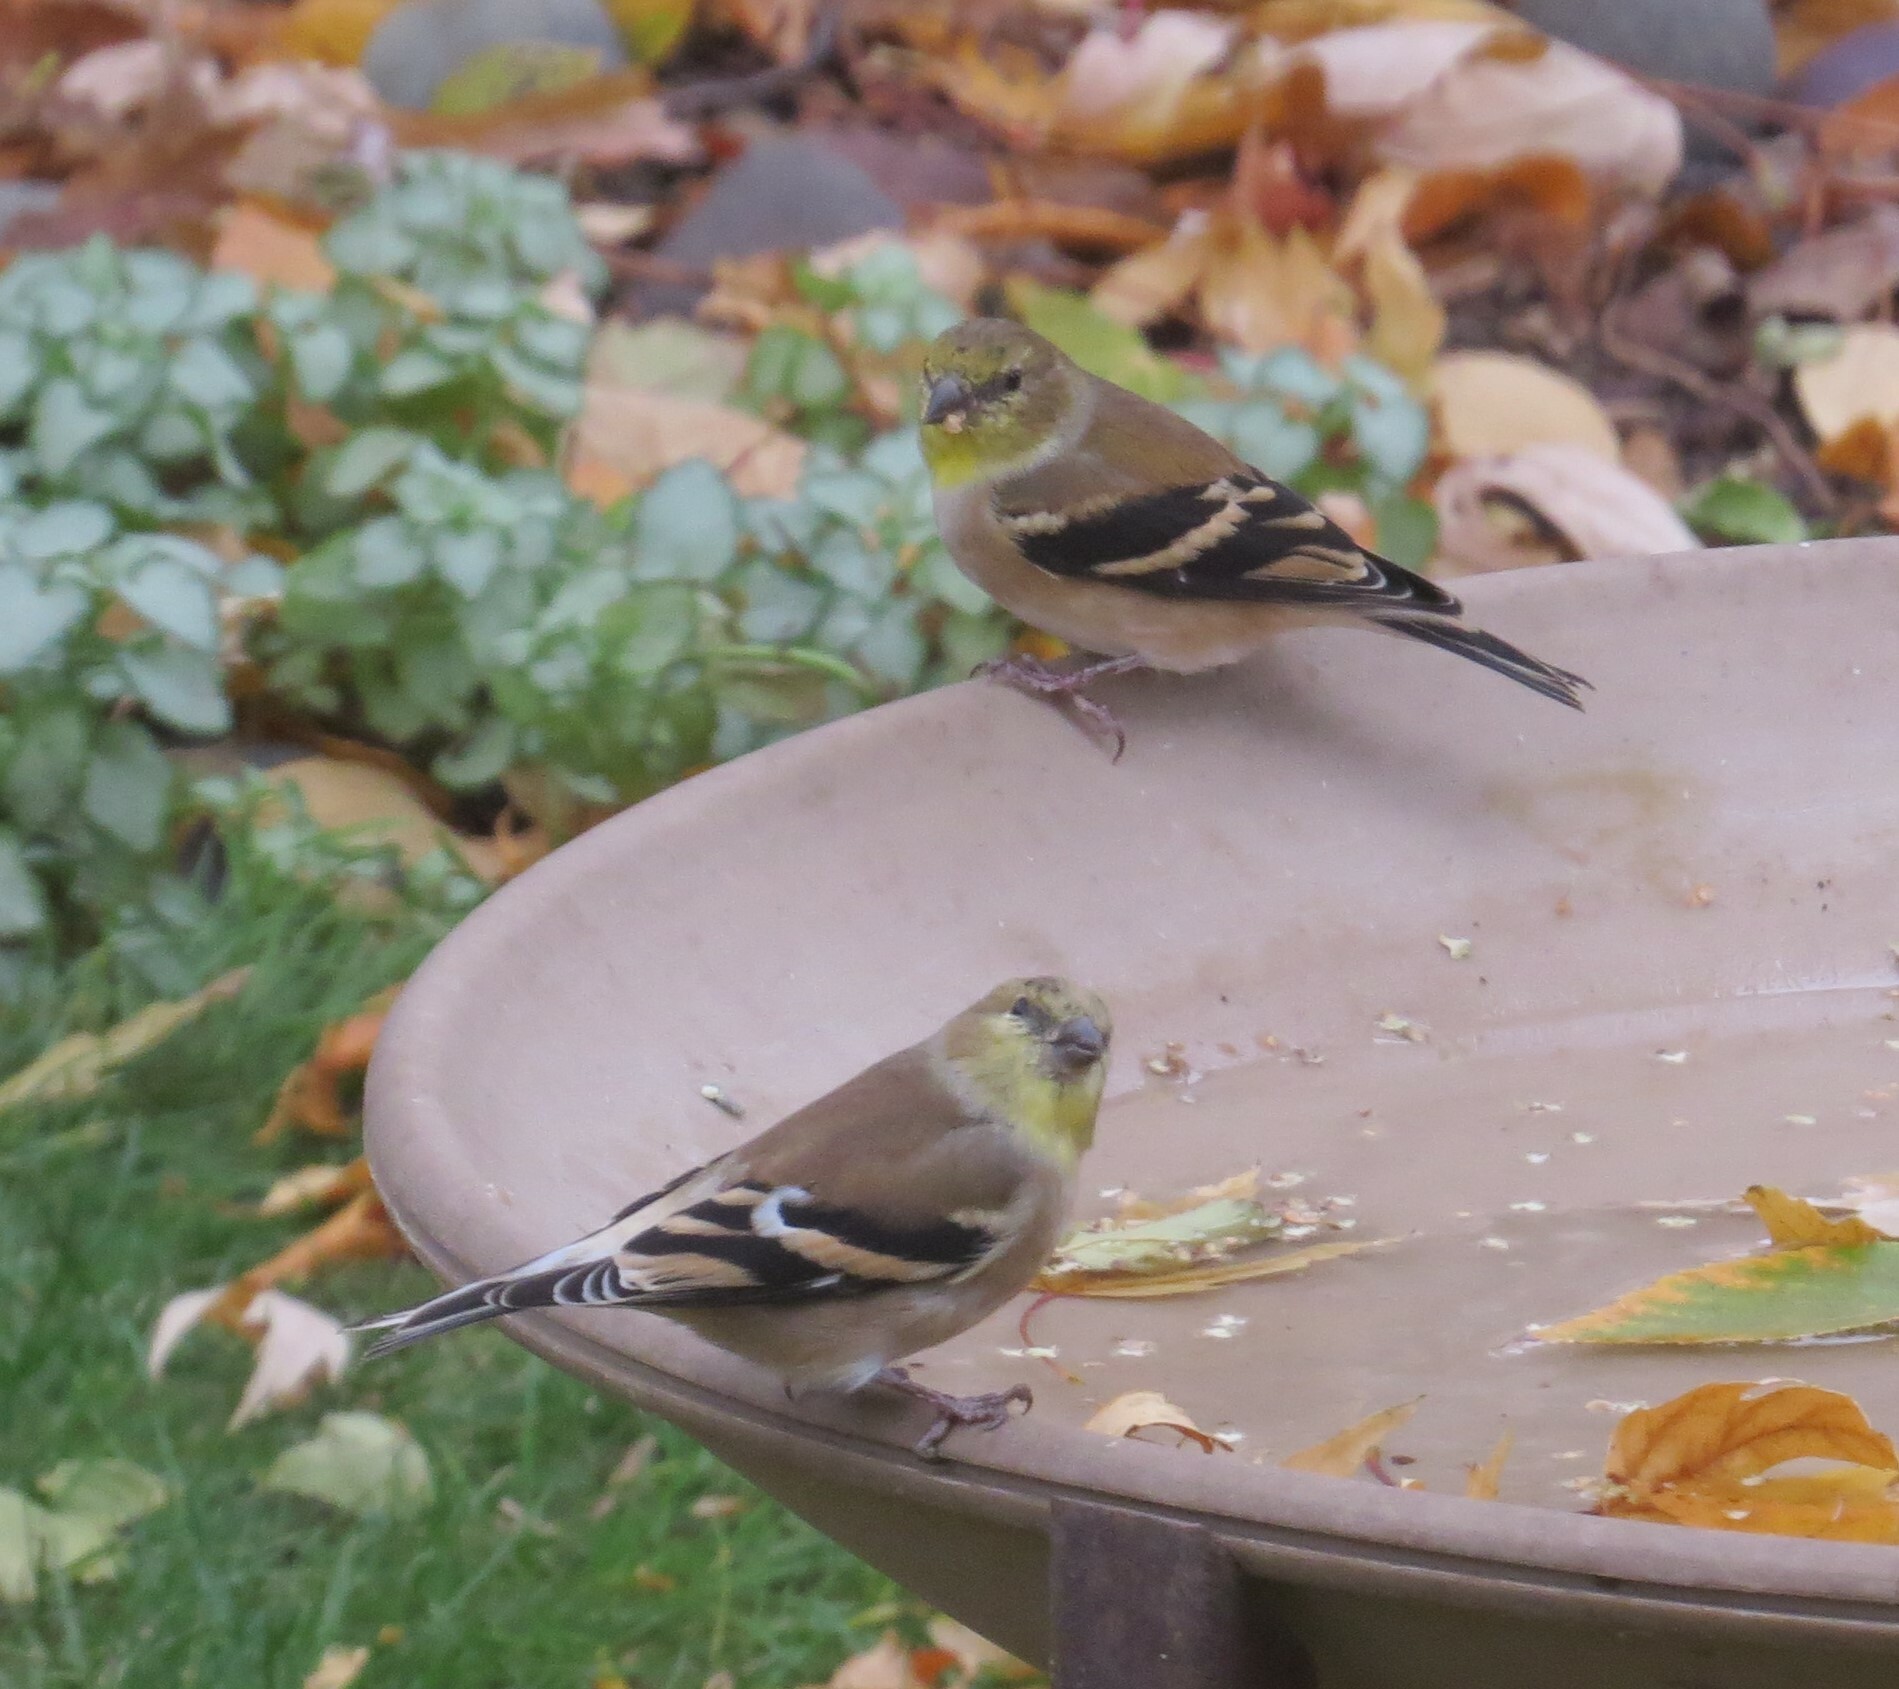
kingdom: Animalia
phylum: Chordata
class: Aves
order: Passeriformes
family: Fringillidae
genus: Spinus
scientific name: Spinus tristis
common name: American goldfinch
